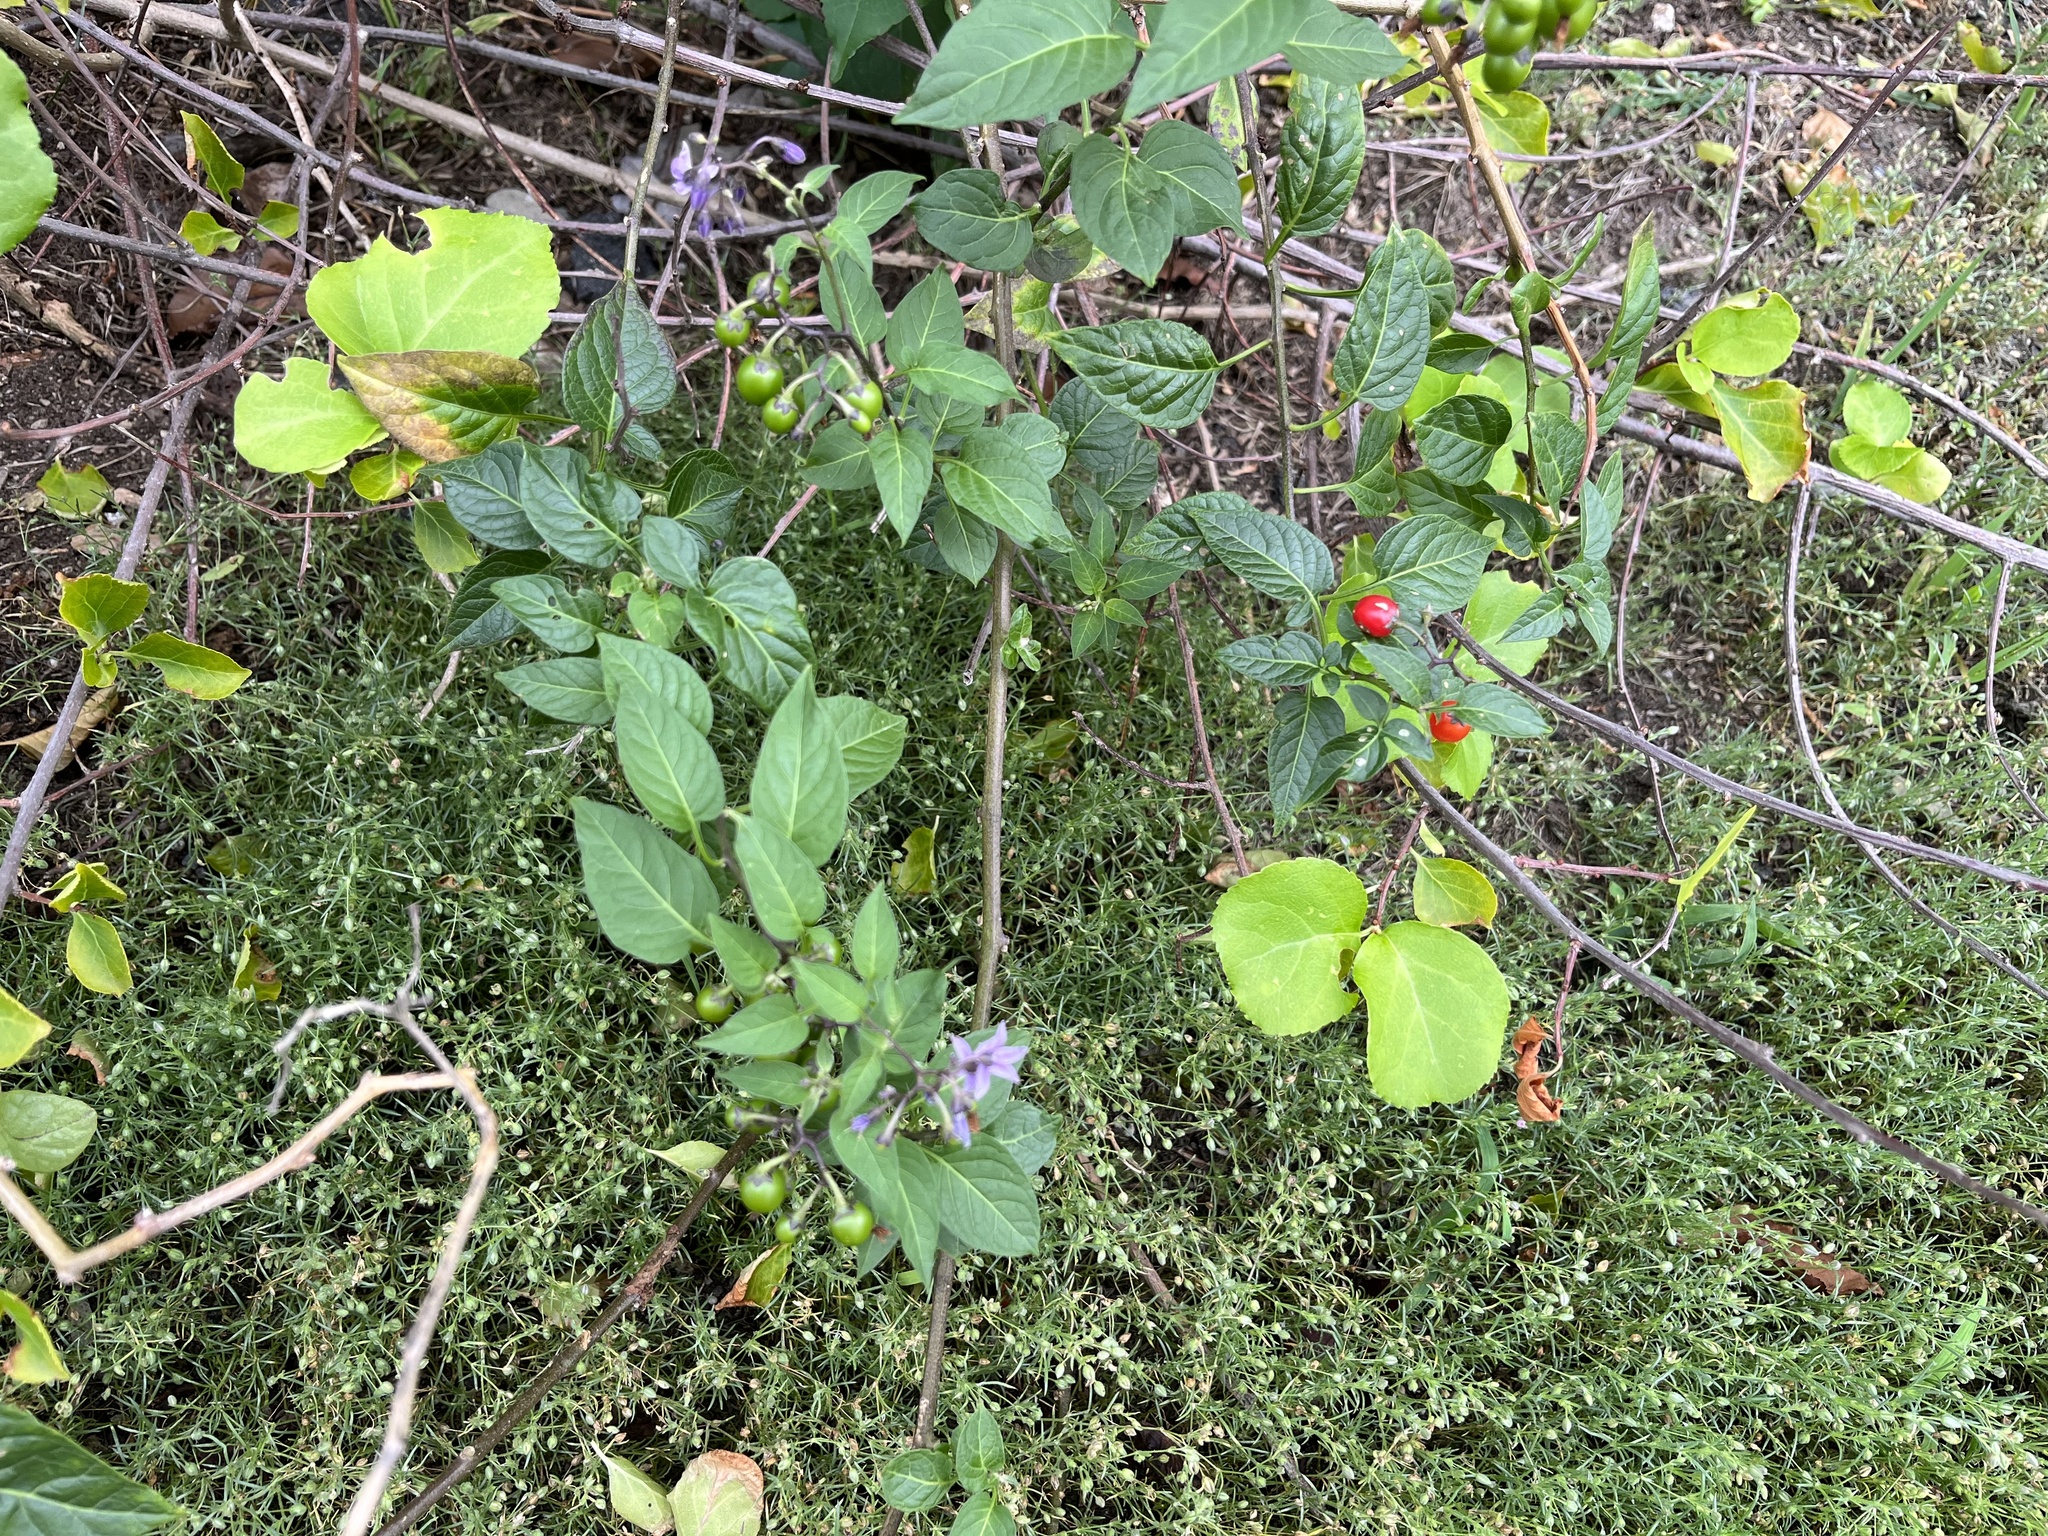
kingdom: Plantae
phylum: Tracheophyta
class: Magnoliopsida
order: Solanales
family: Solanaceae
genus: Solanum
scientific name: Solanum dulcamara
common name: Climbing nightshade
